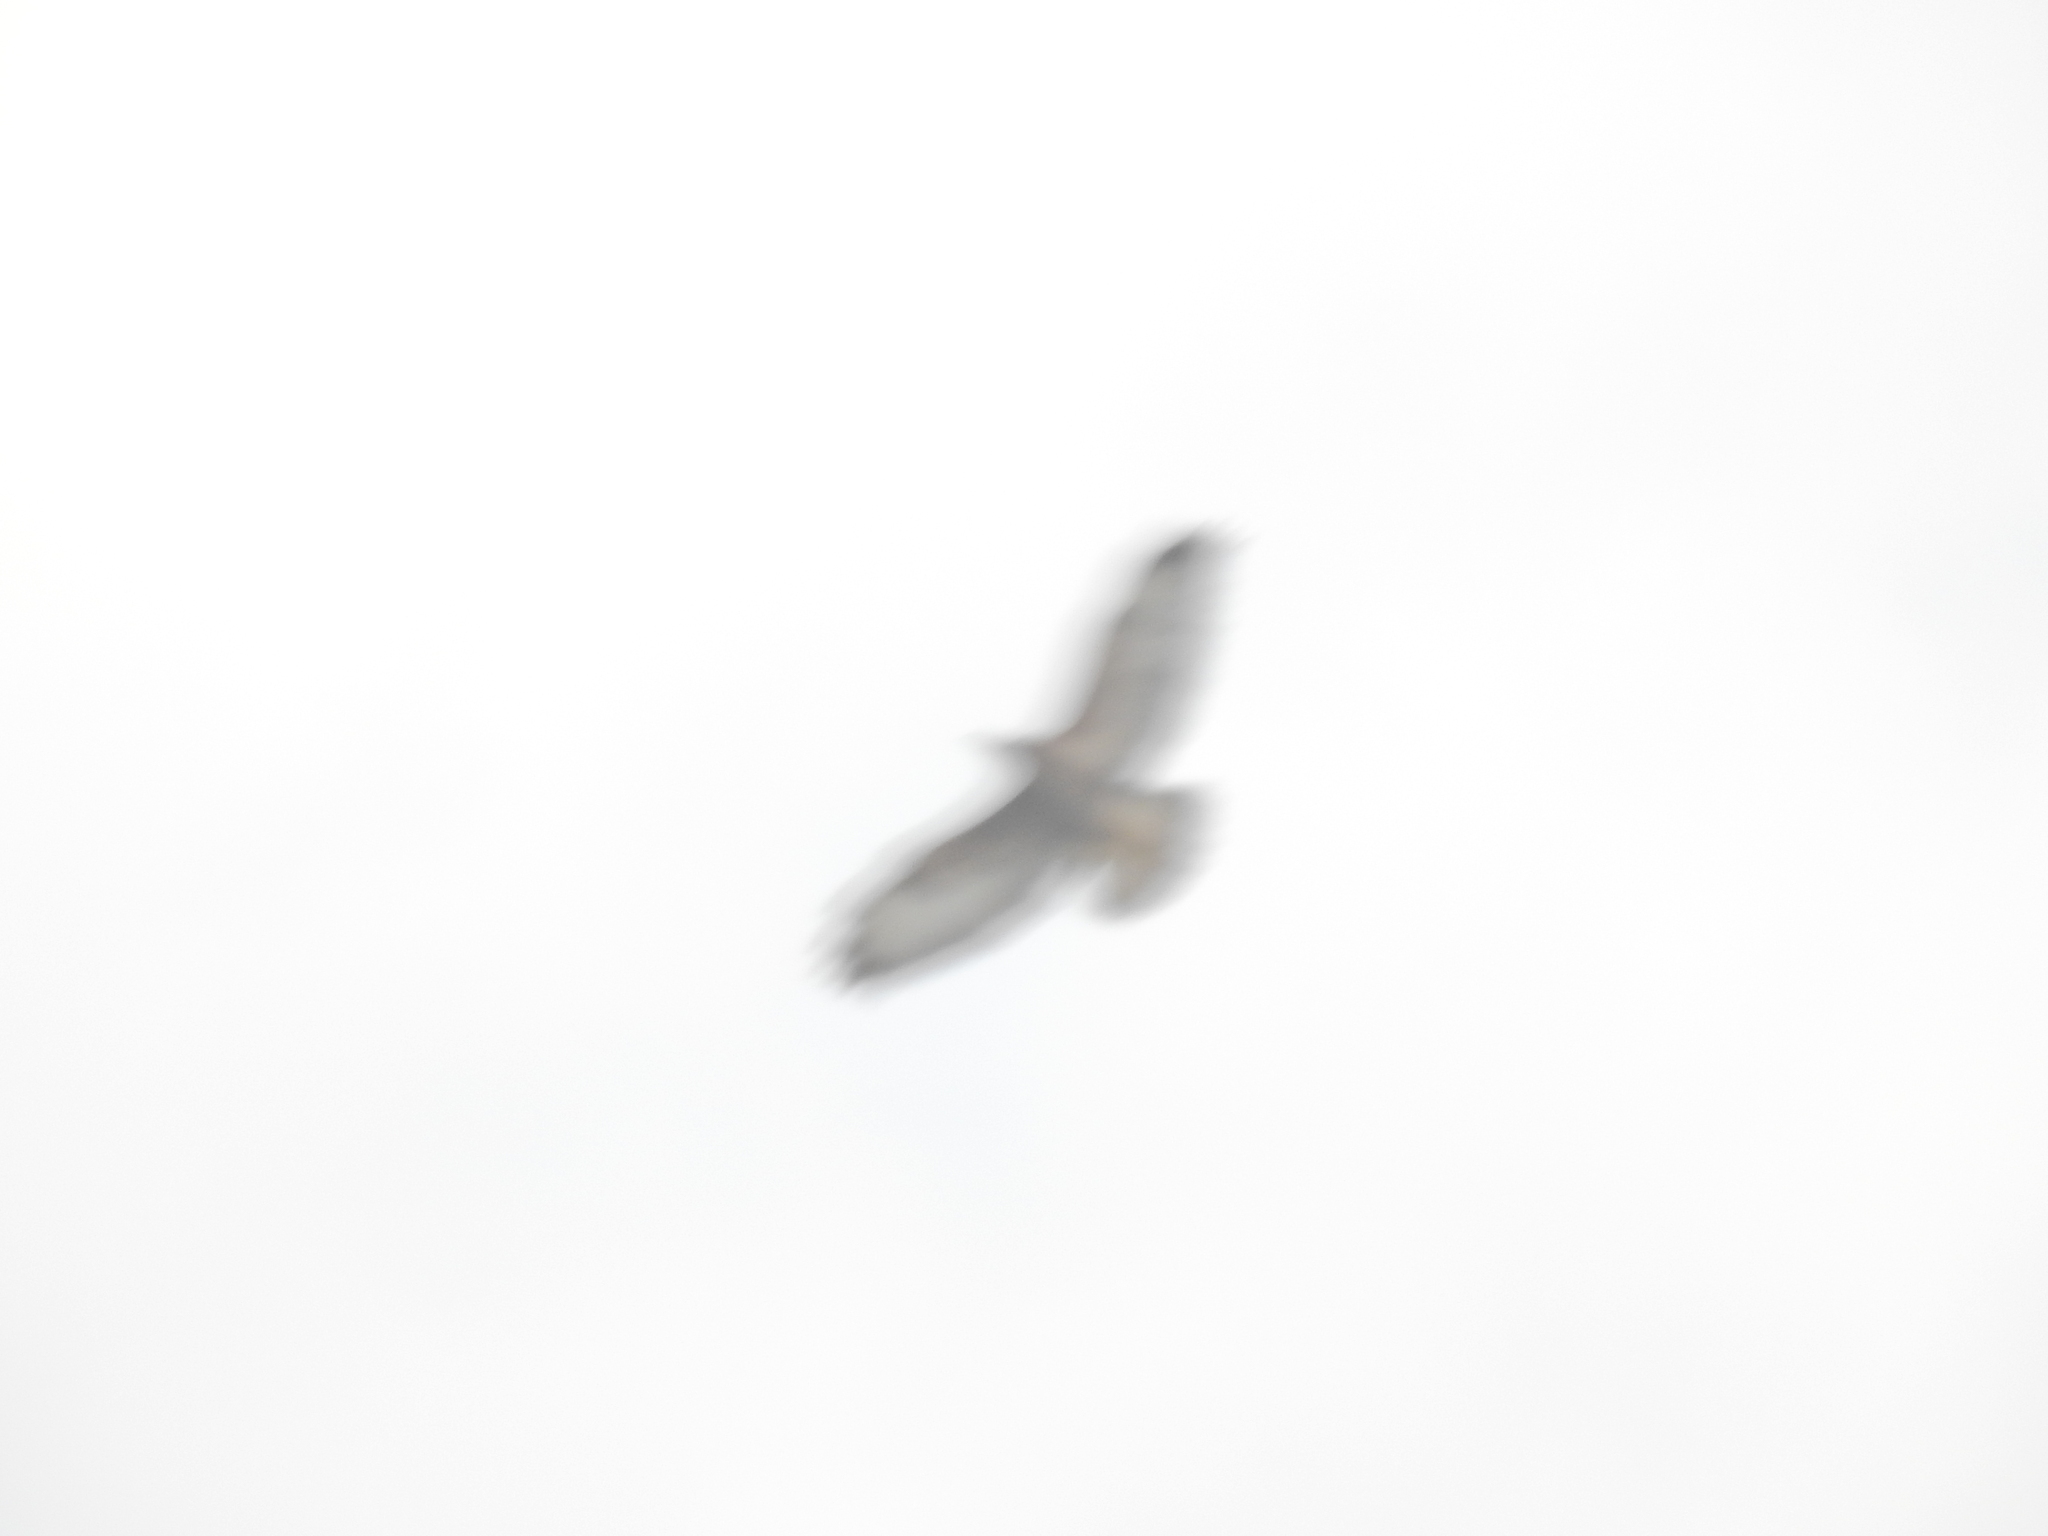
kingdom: Animalia
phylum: Chordata
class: Aves
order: Accipitriformes
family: Accipitridae
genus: Buteo
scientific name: Buteo buteo
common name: Common buzzard
